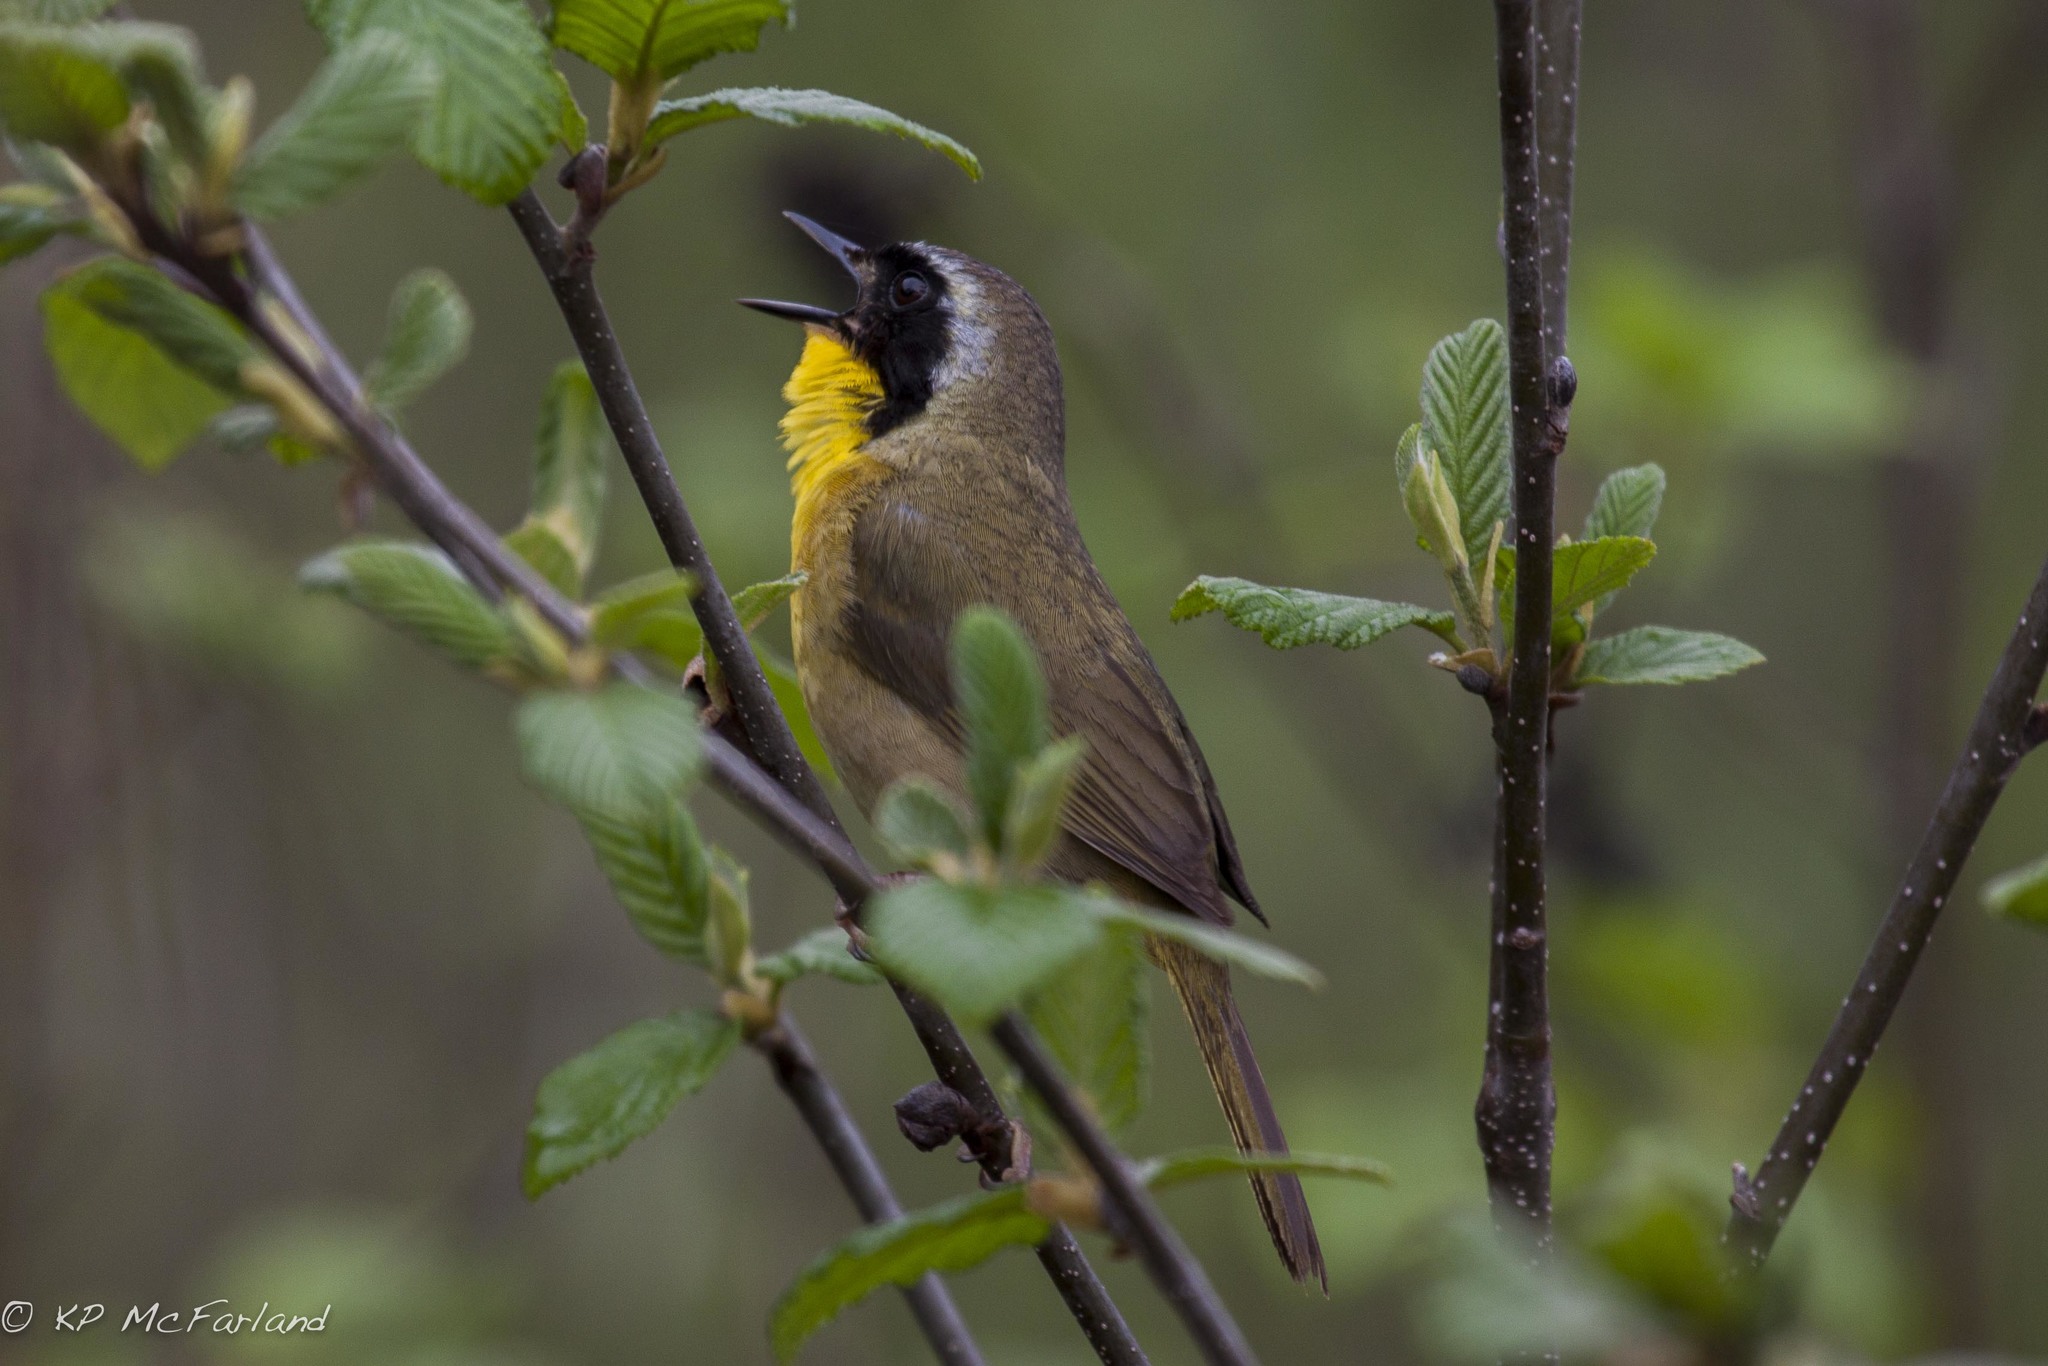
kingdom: Animalia
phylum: Chordata
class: Aves
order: Passeriformes
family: Parulidae
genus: Geothlypis
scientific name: Geothlypis trichas
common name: Common yellowthroat
